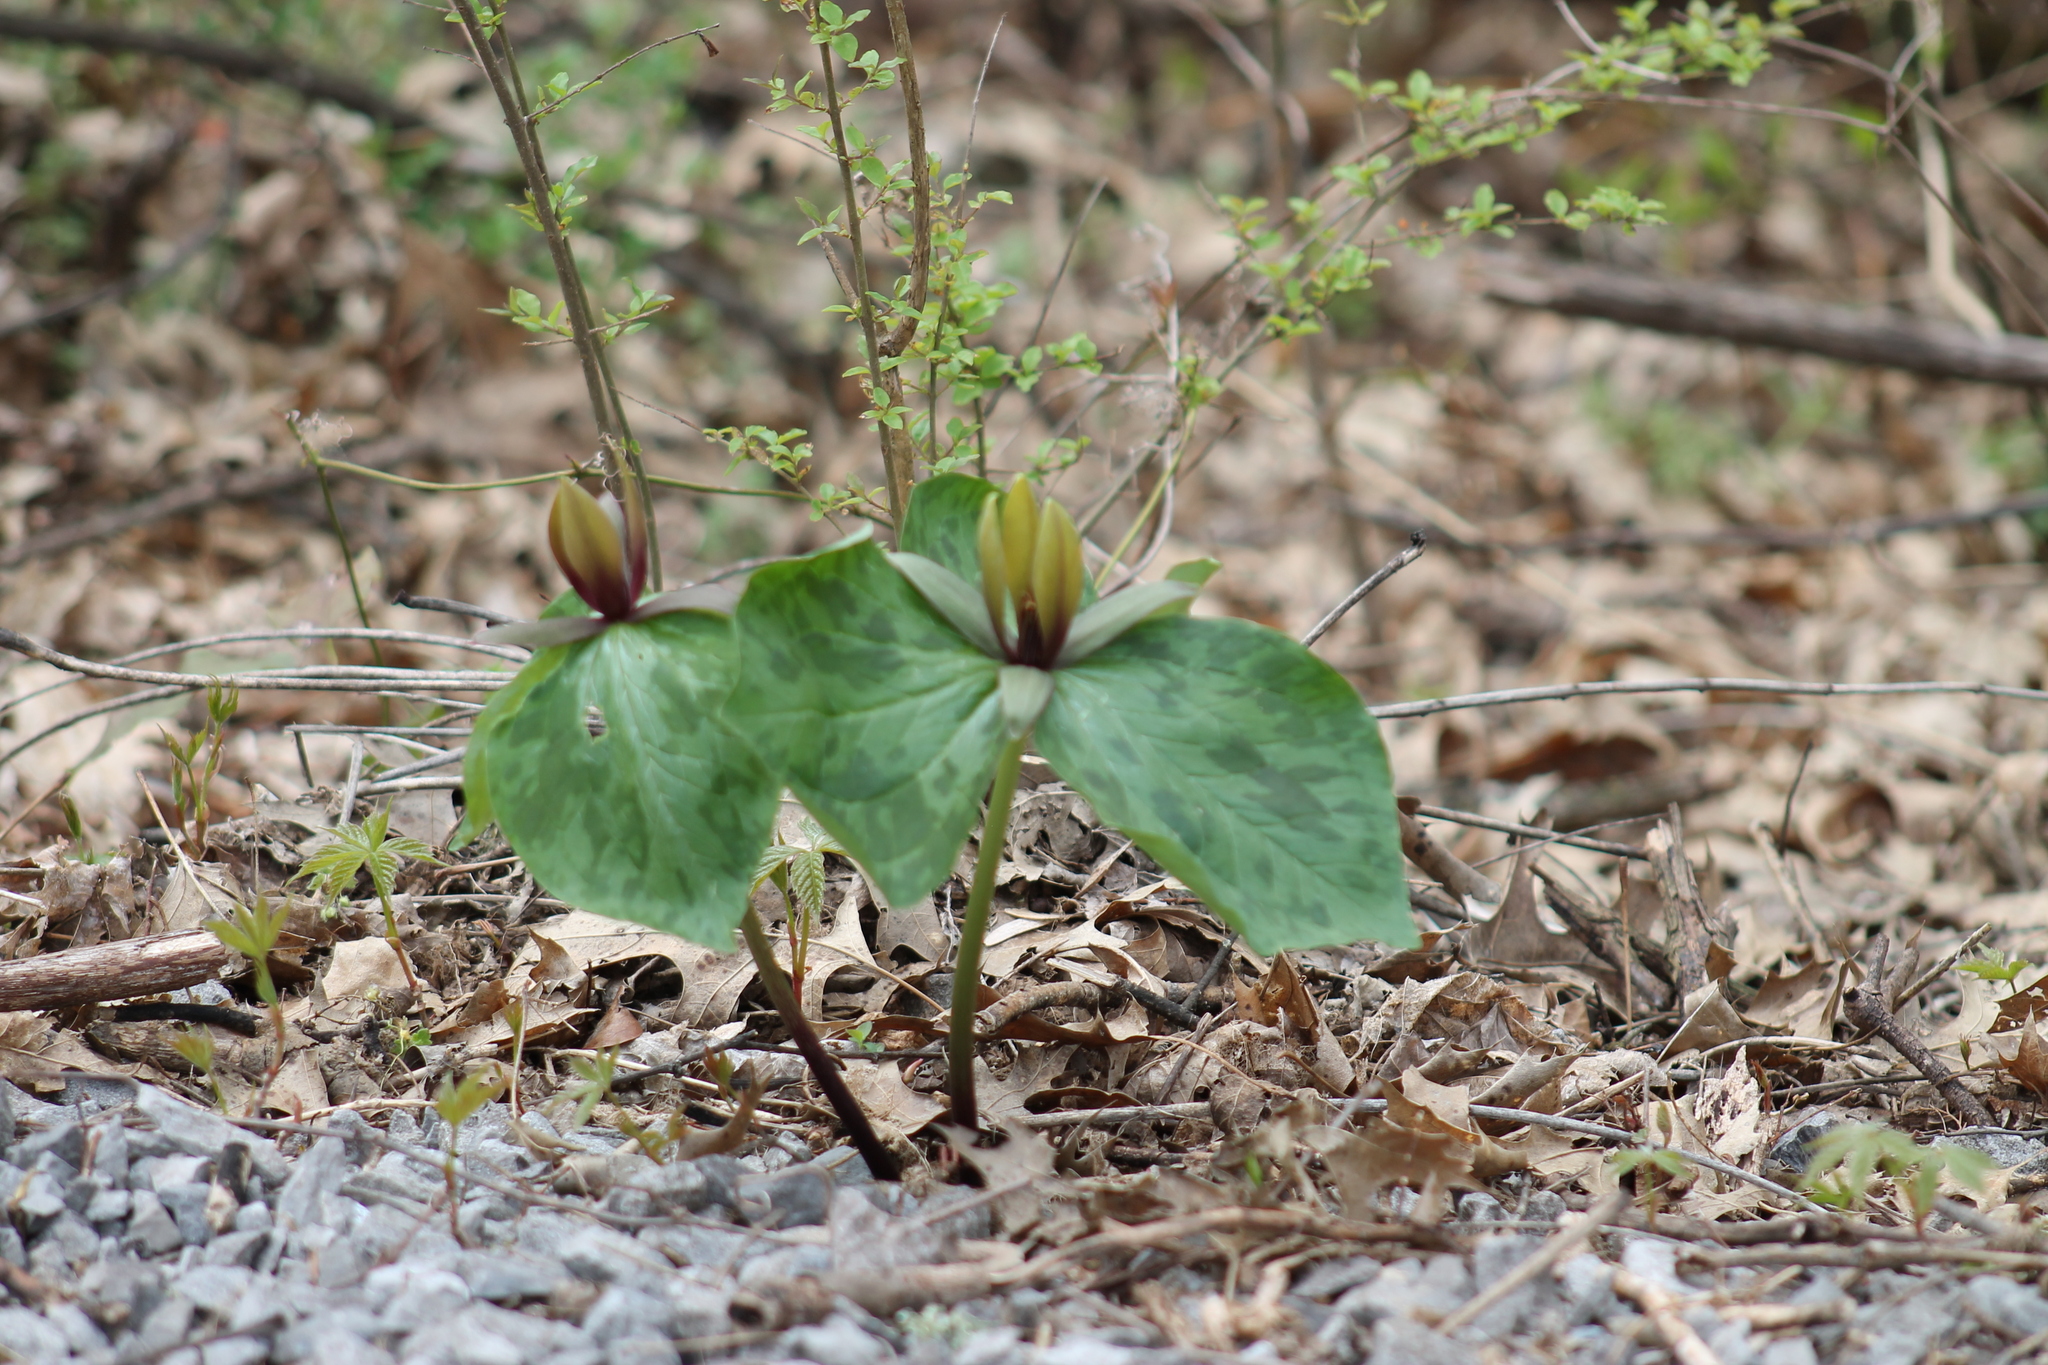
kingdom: Plantae
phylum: Tracheophyta
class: Liliopsida
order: Liliales
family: Melanthiaceae
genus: Trillium
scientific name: Trillium cuneatum
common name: Cuneate trillium
